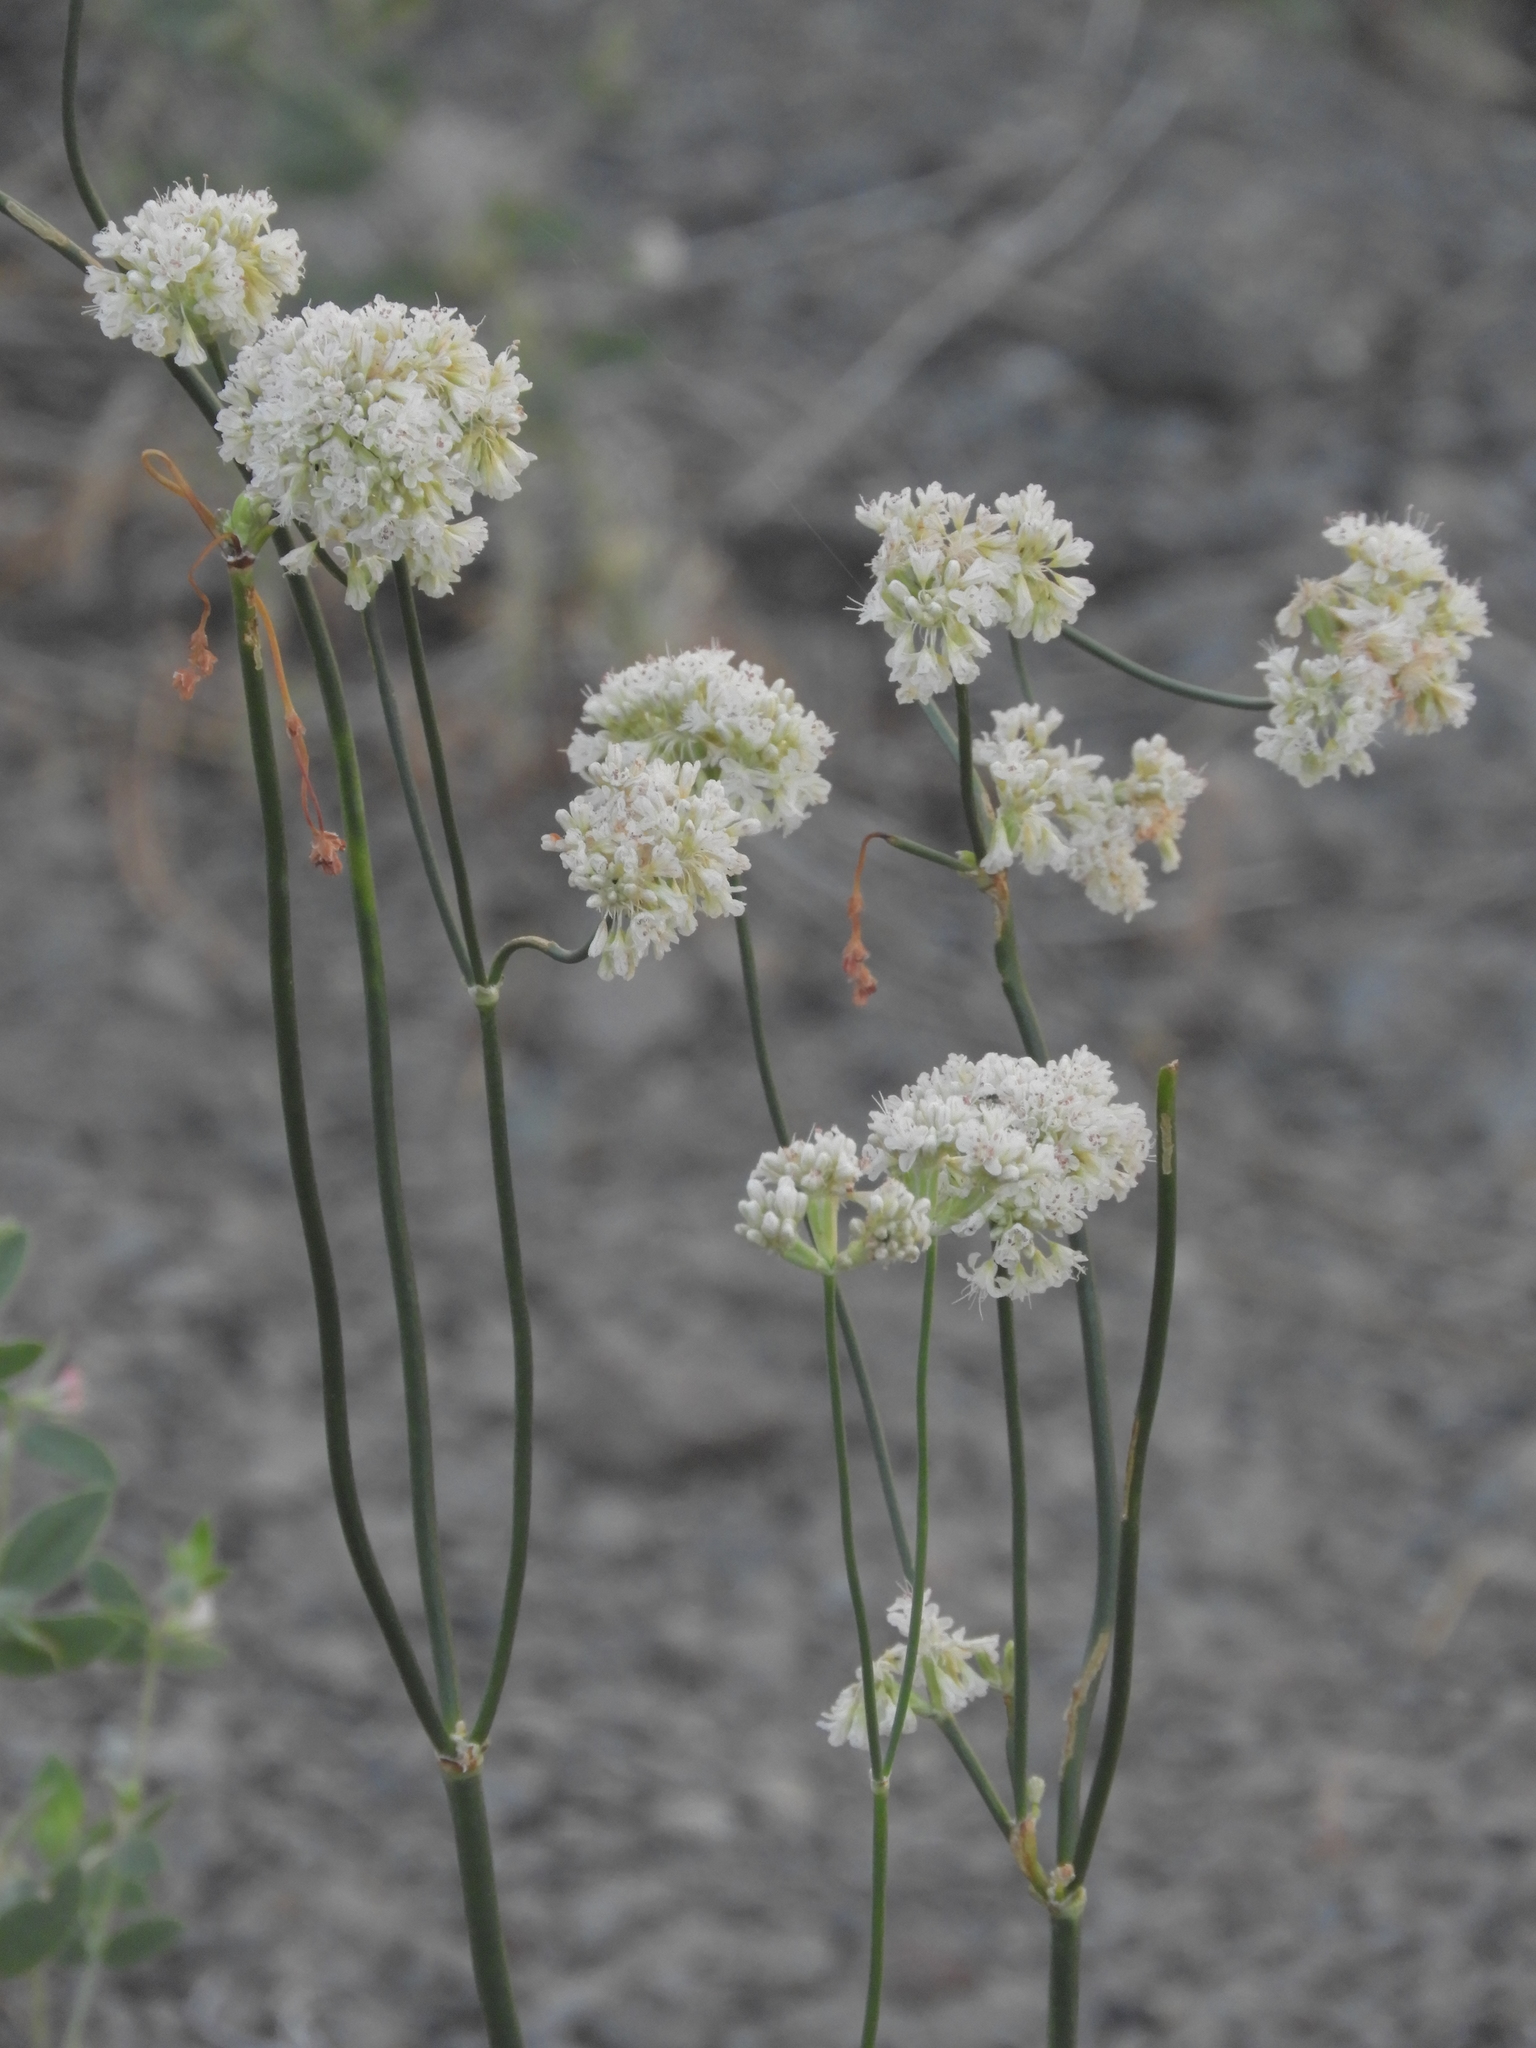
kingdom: Plantae
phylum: Tracheophyta
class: Magnoliopsida
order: Caryophyllales
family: Polygonaceae
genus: Eriogonum
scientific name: Eriogonum nudum
